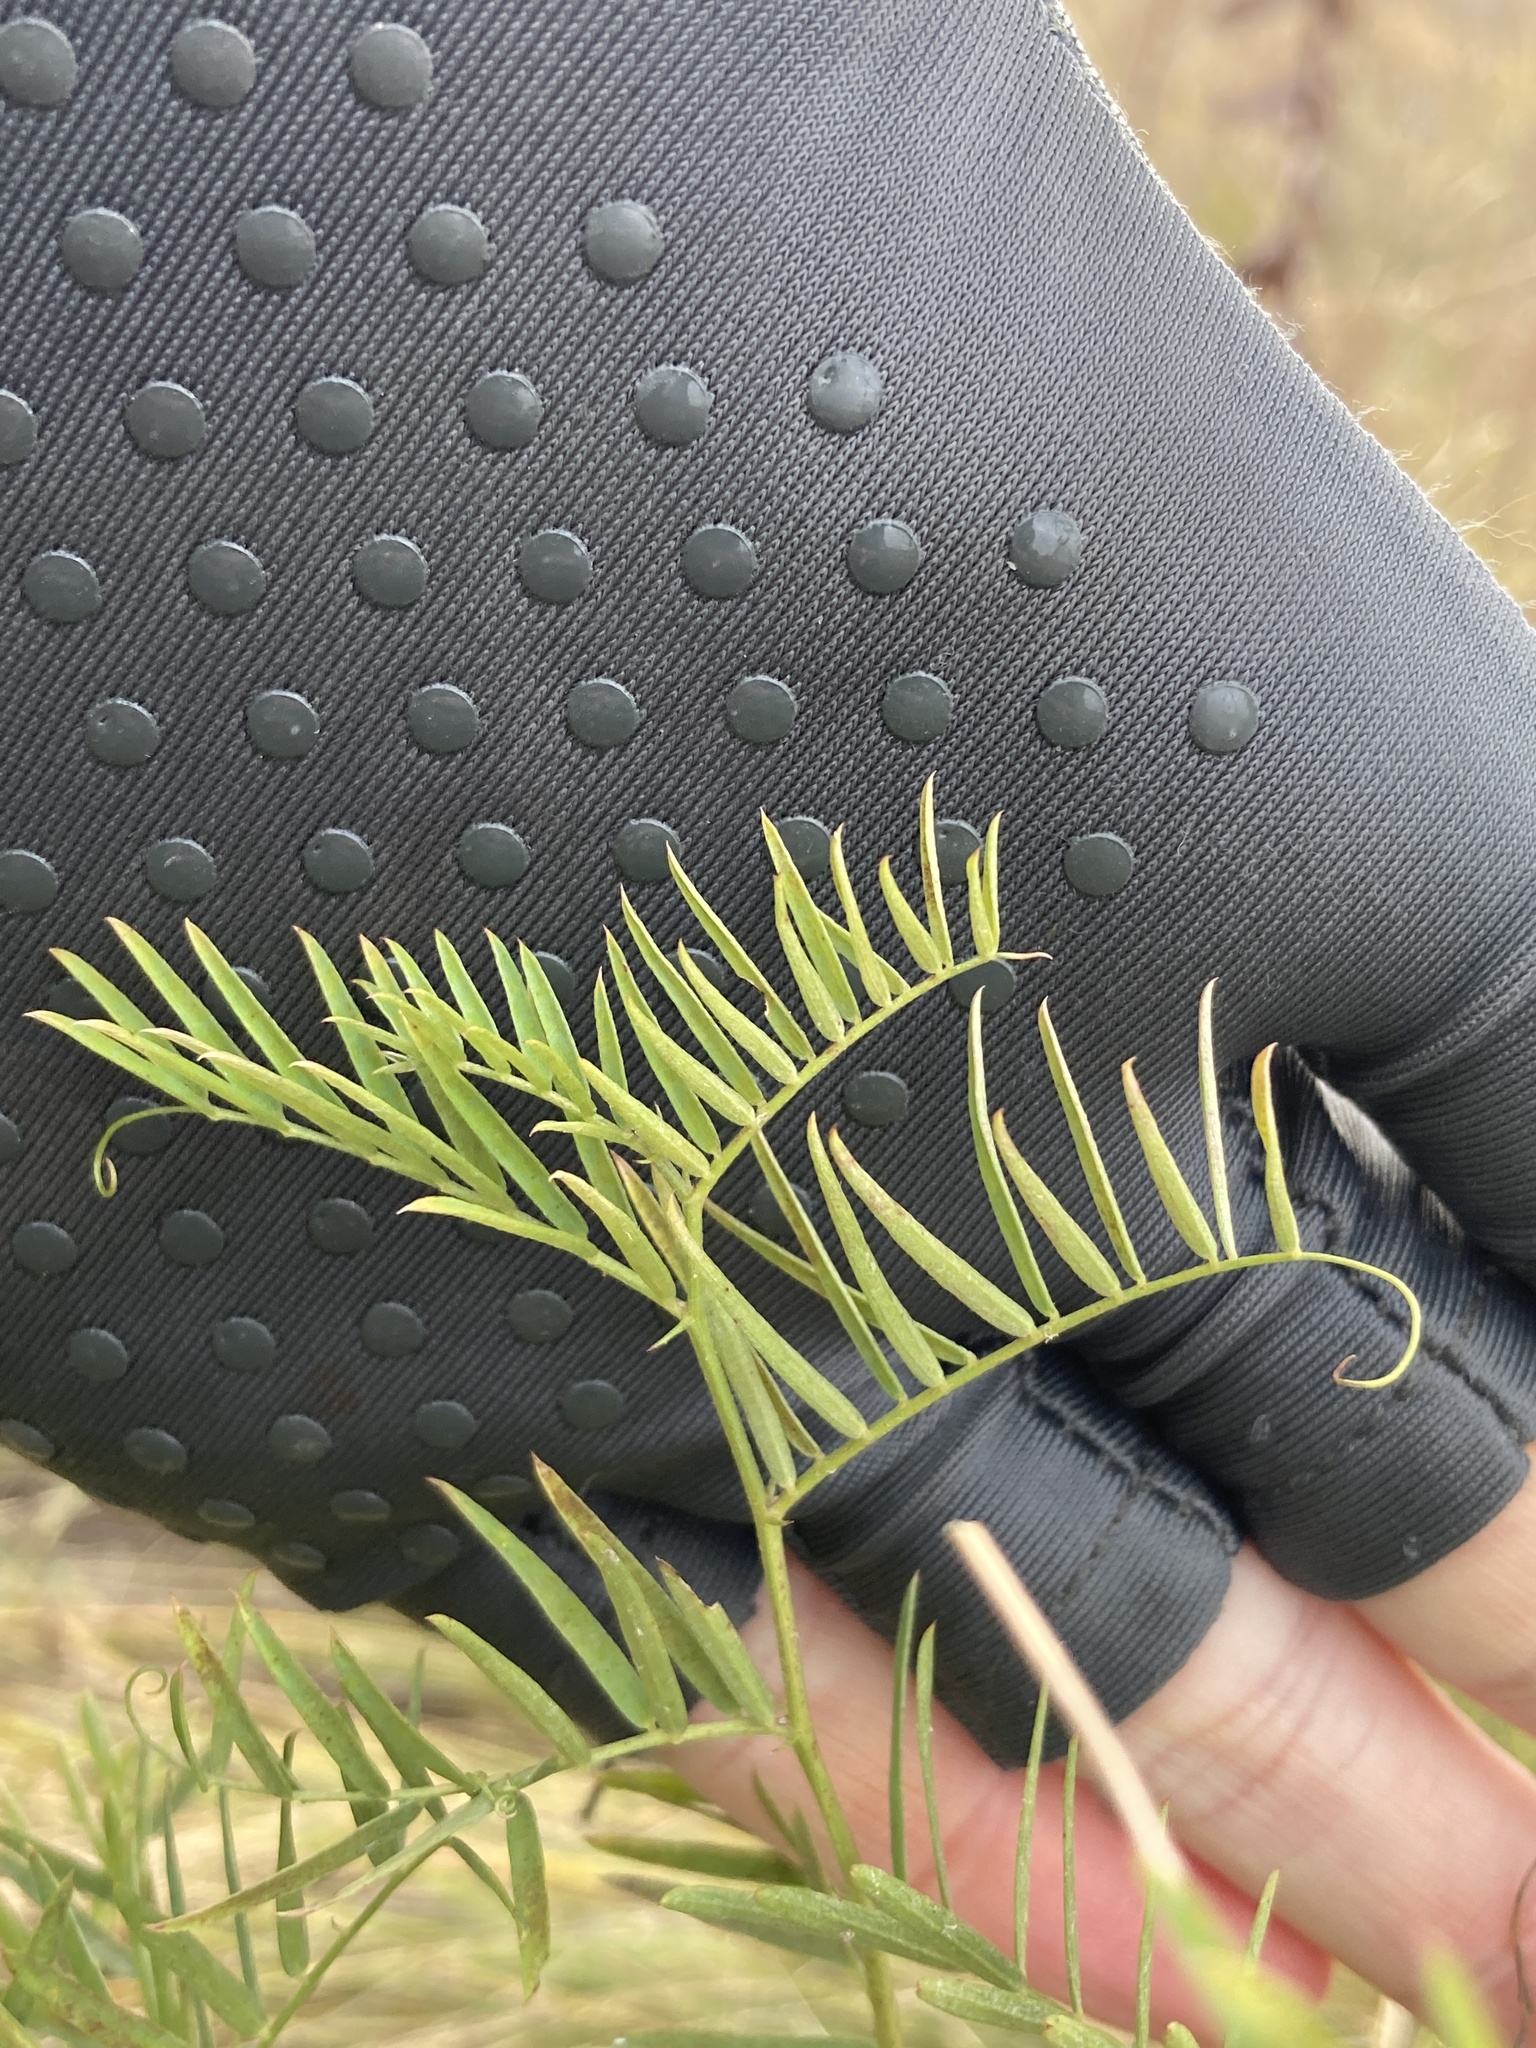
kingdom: Plantae
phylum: Tracheophyta
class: Magnoliopsida
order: Fabales
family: Fabaceae
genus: Vicia
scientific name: Vicia tenuifolia
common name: Fine-leaved vetch
